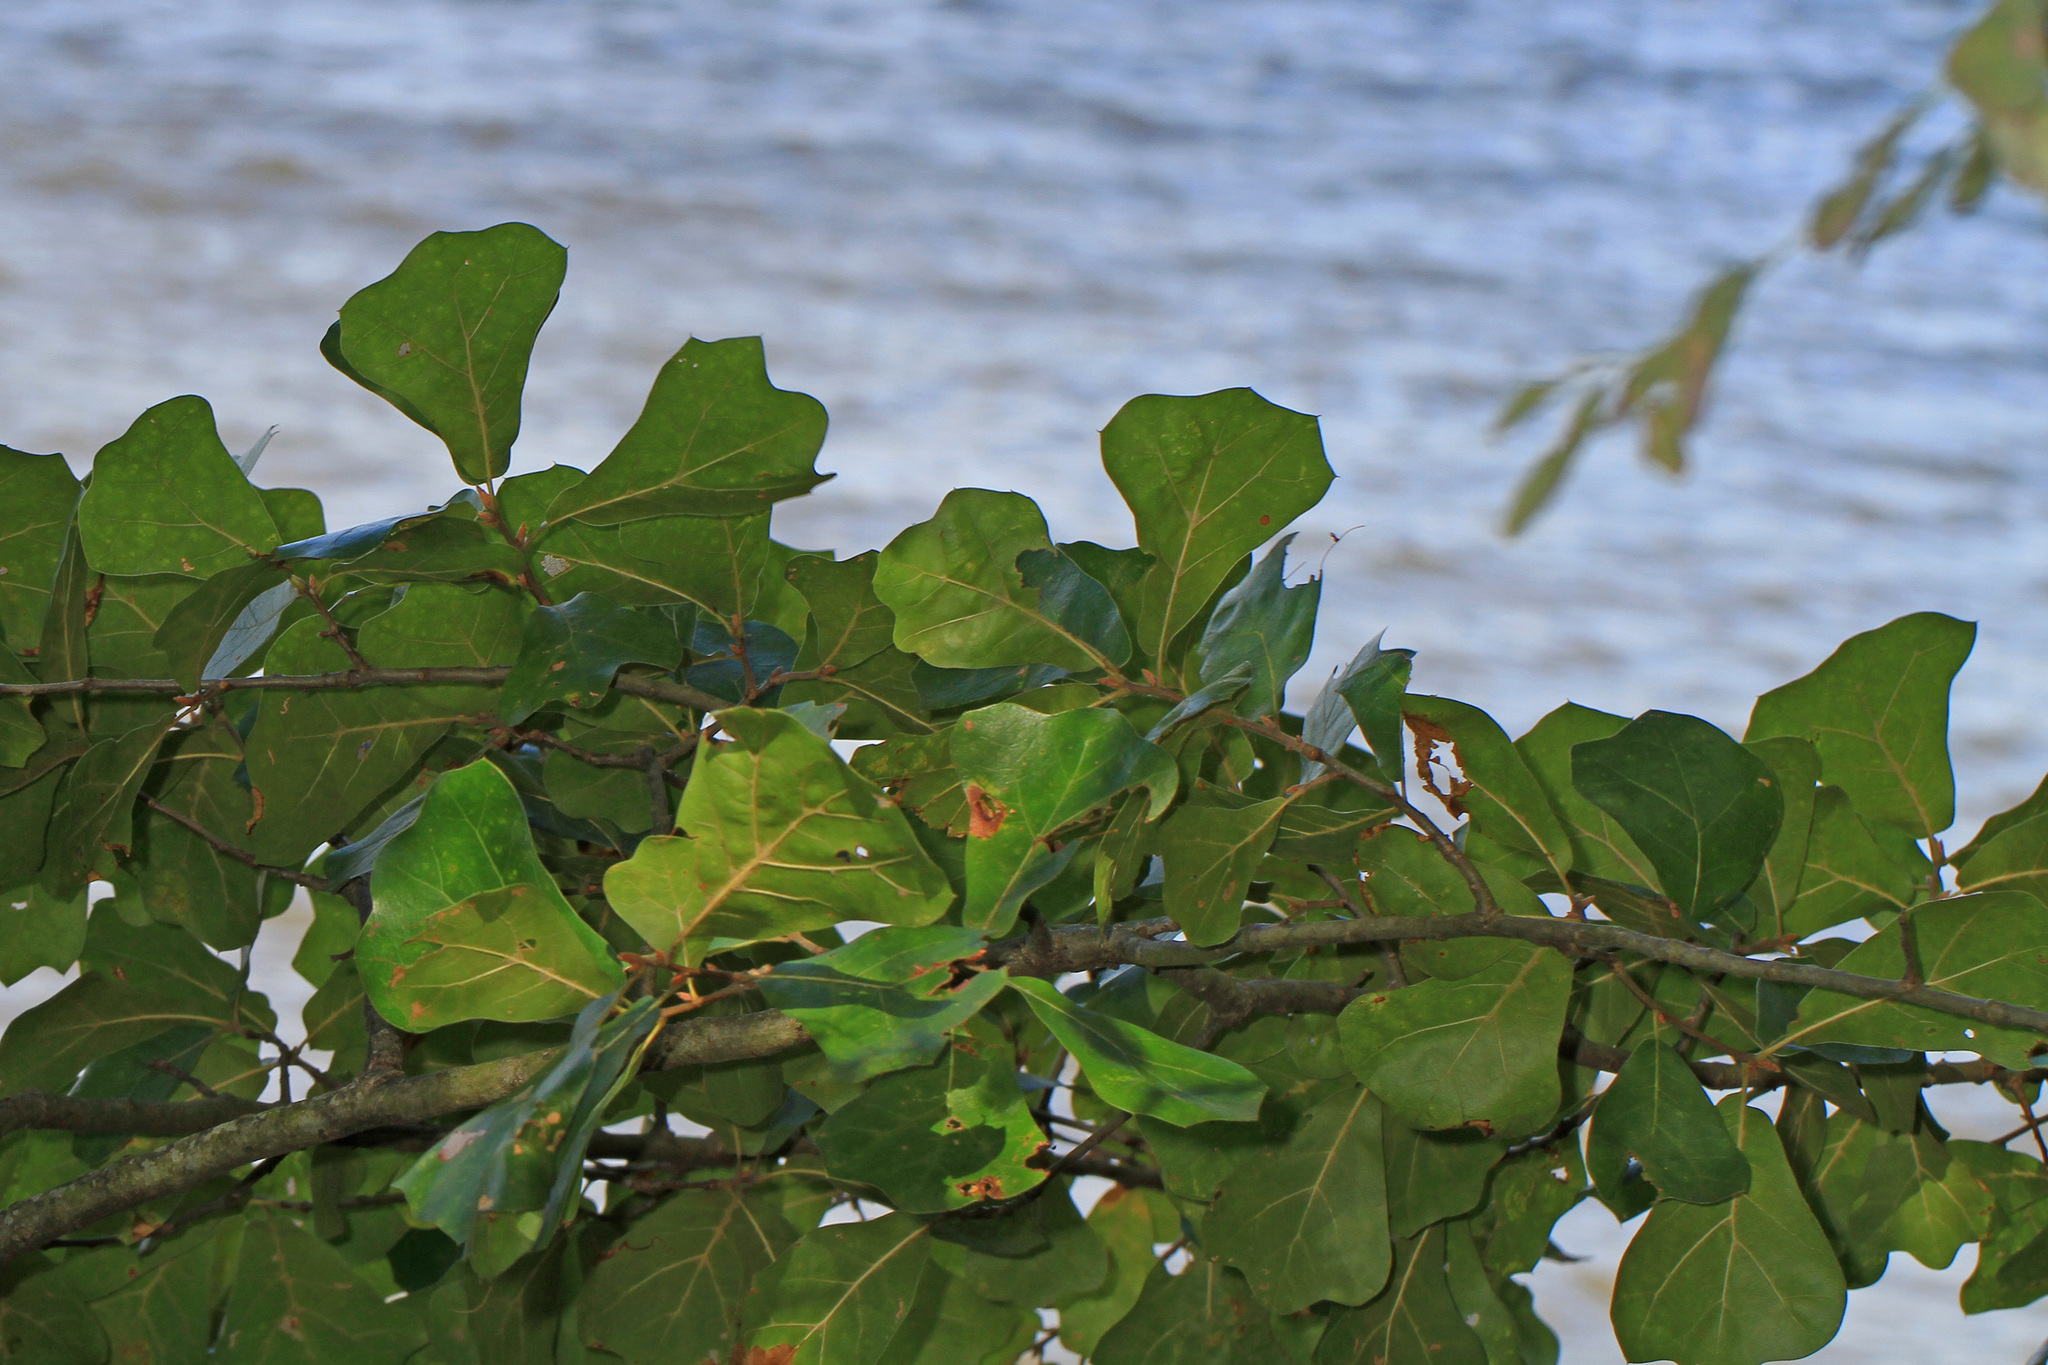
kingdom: Plantae
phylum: Tracheophyta
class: Magnoliopsida
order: Fagales
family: Fagaceae
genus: Quercus
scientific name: Quercus marilandica
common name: Blackjack oak
